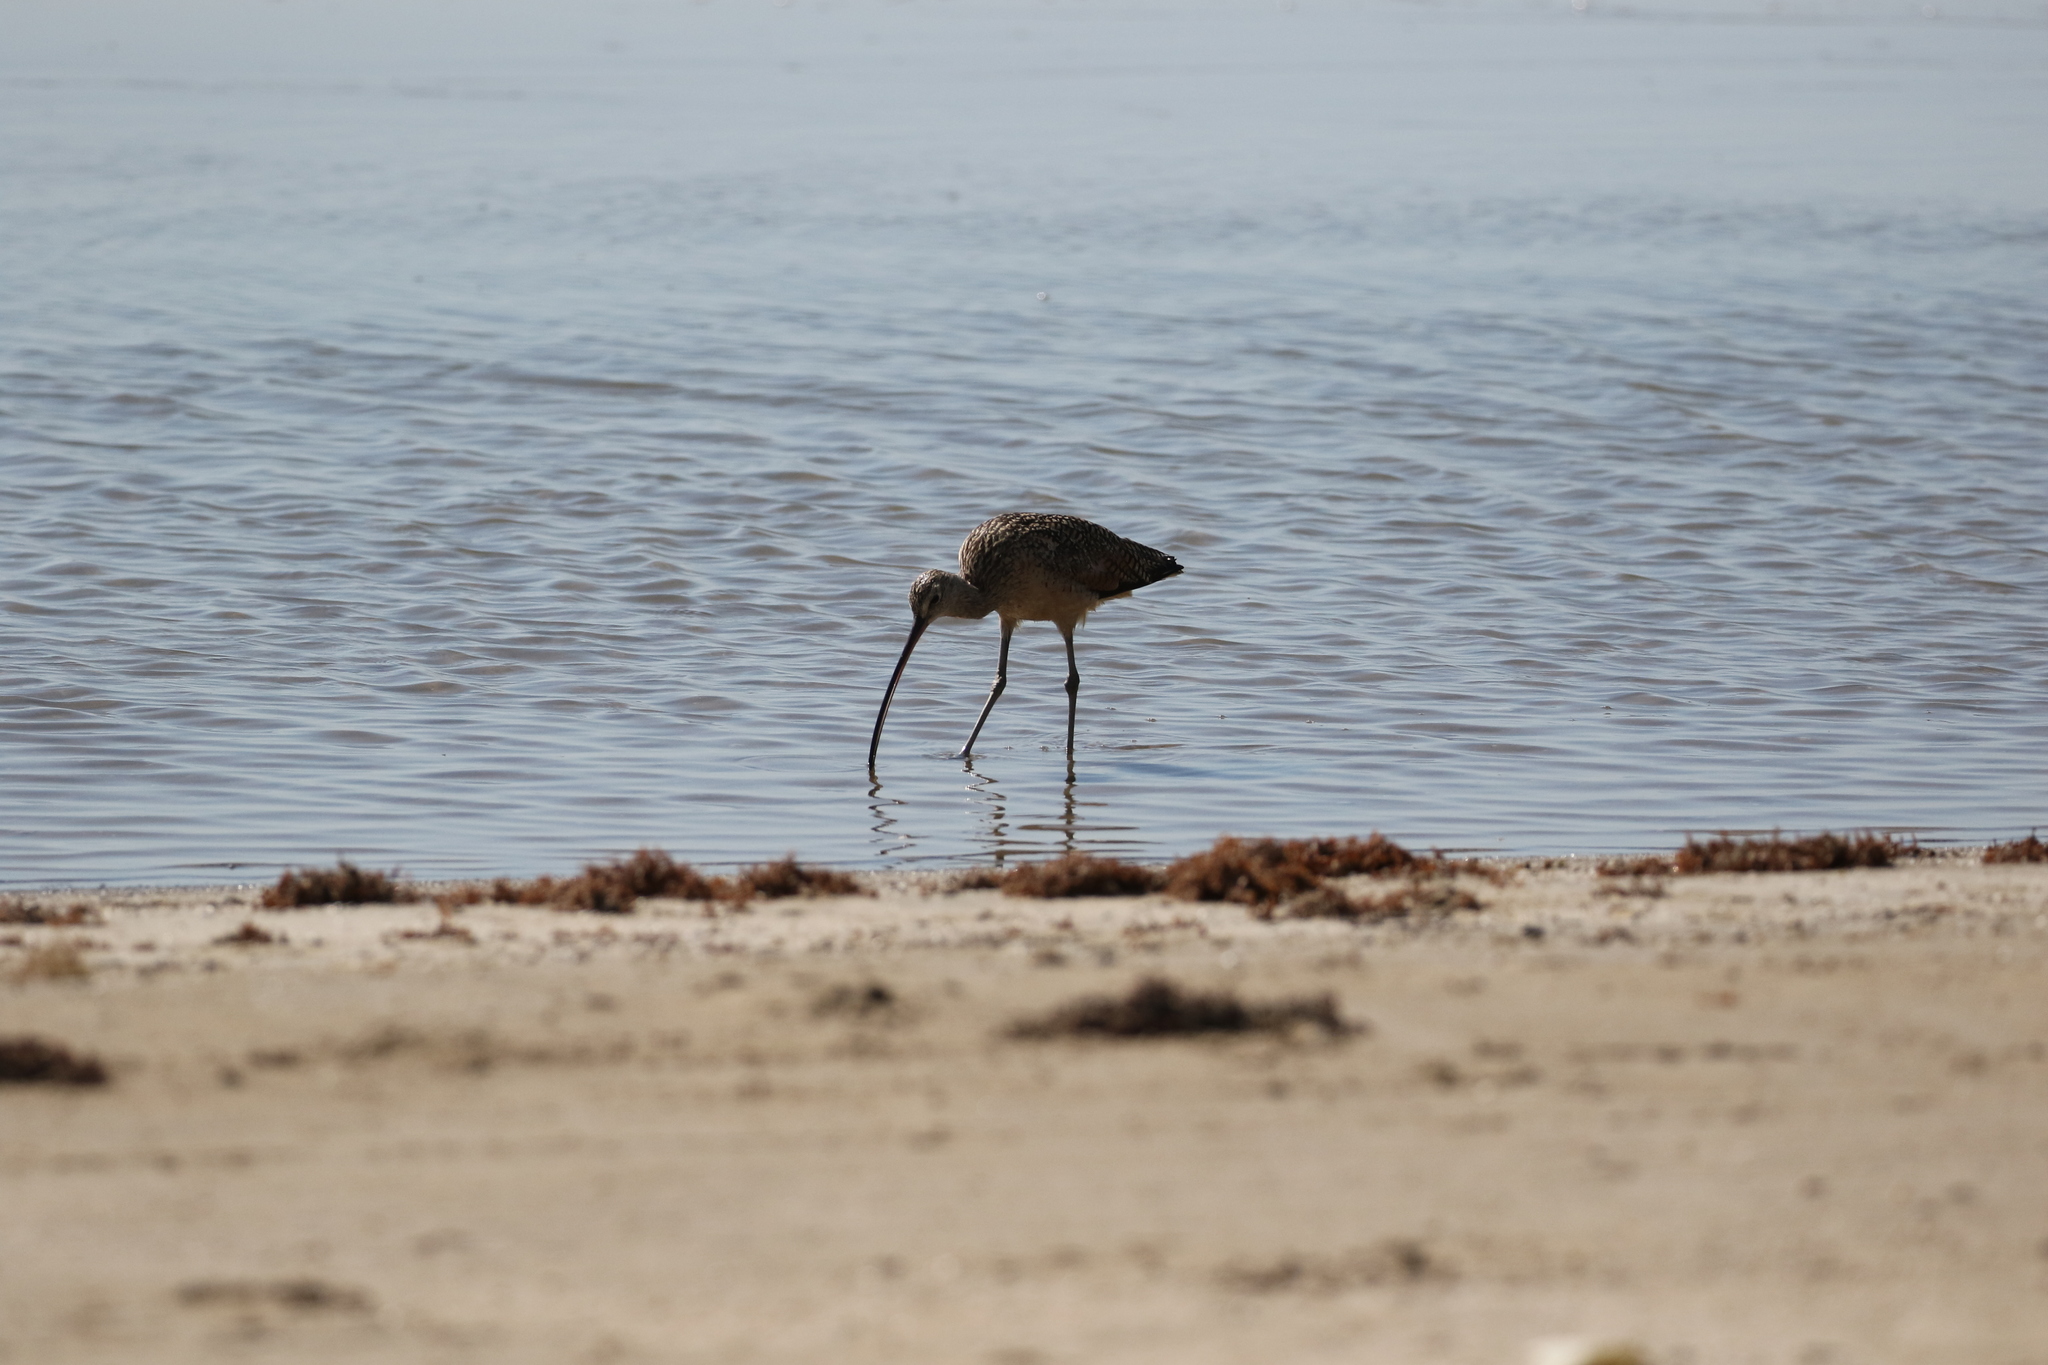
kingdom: Animalia
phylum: Chordata
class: Aves
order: Charadriiformes
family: Scolopacidae
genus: Numenius
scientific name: Numenius americanus
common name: Long-billed curlew
